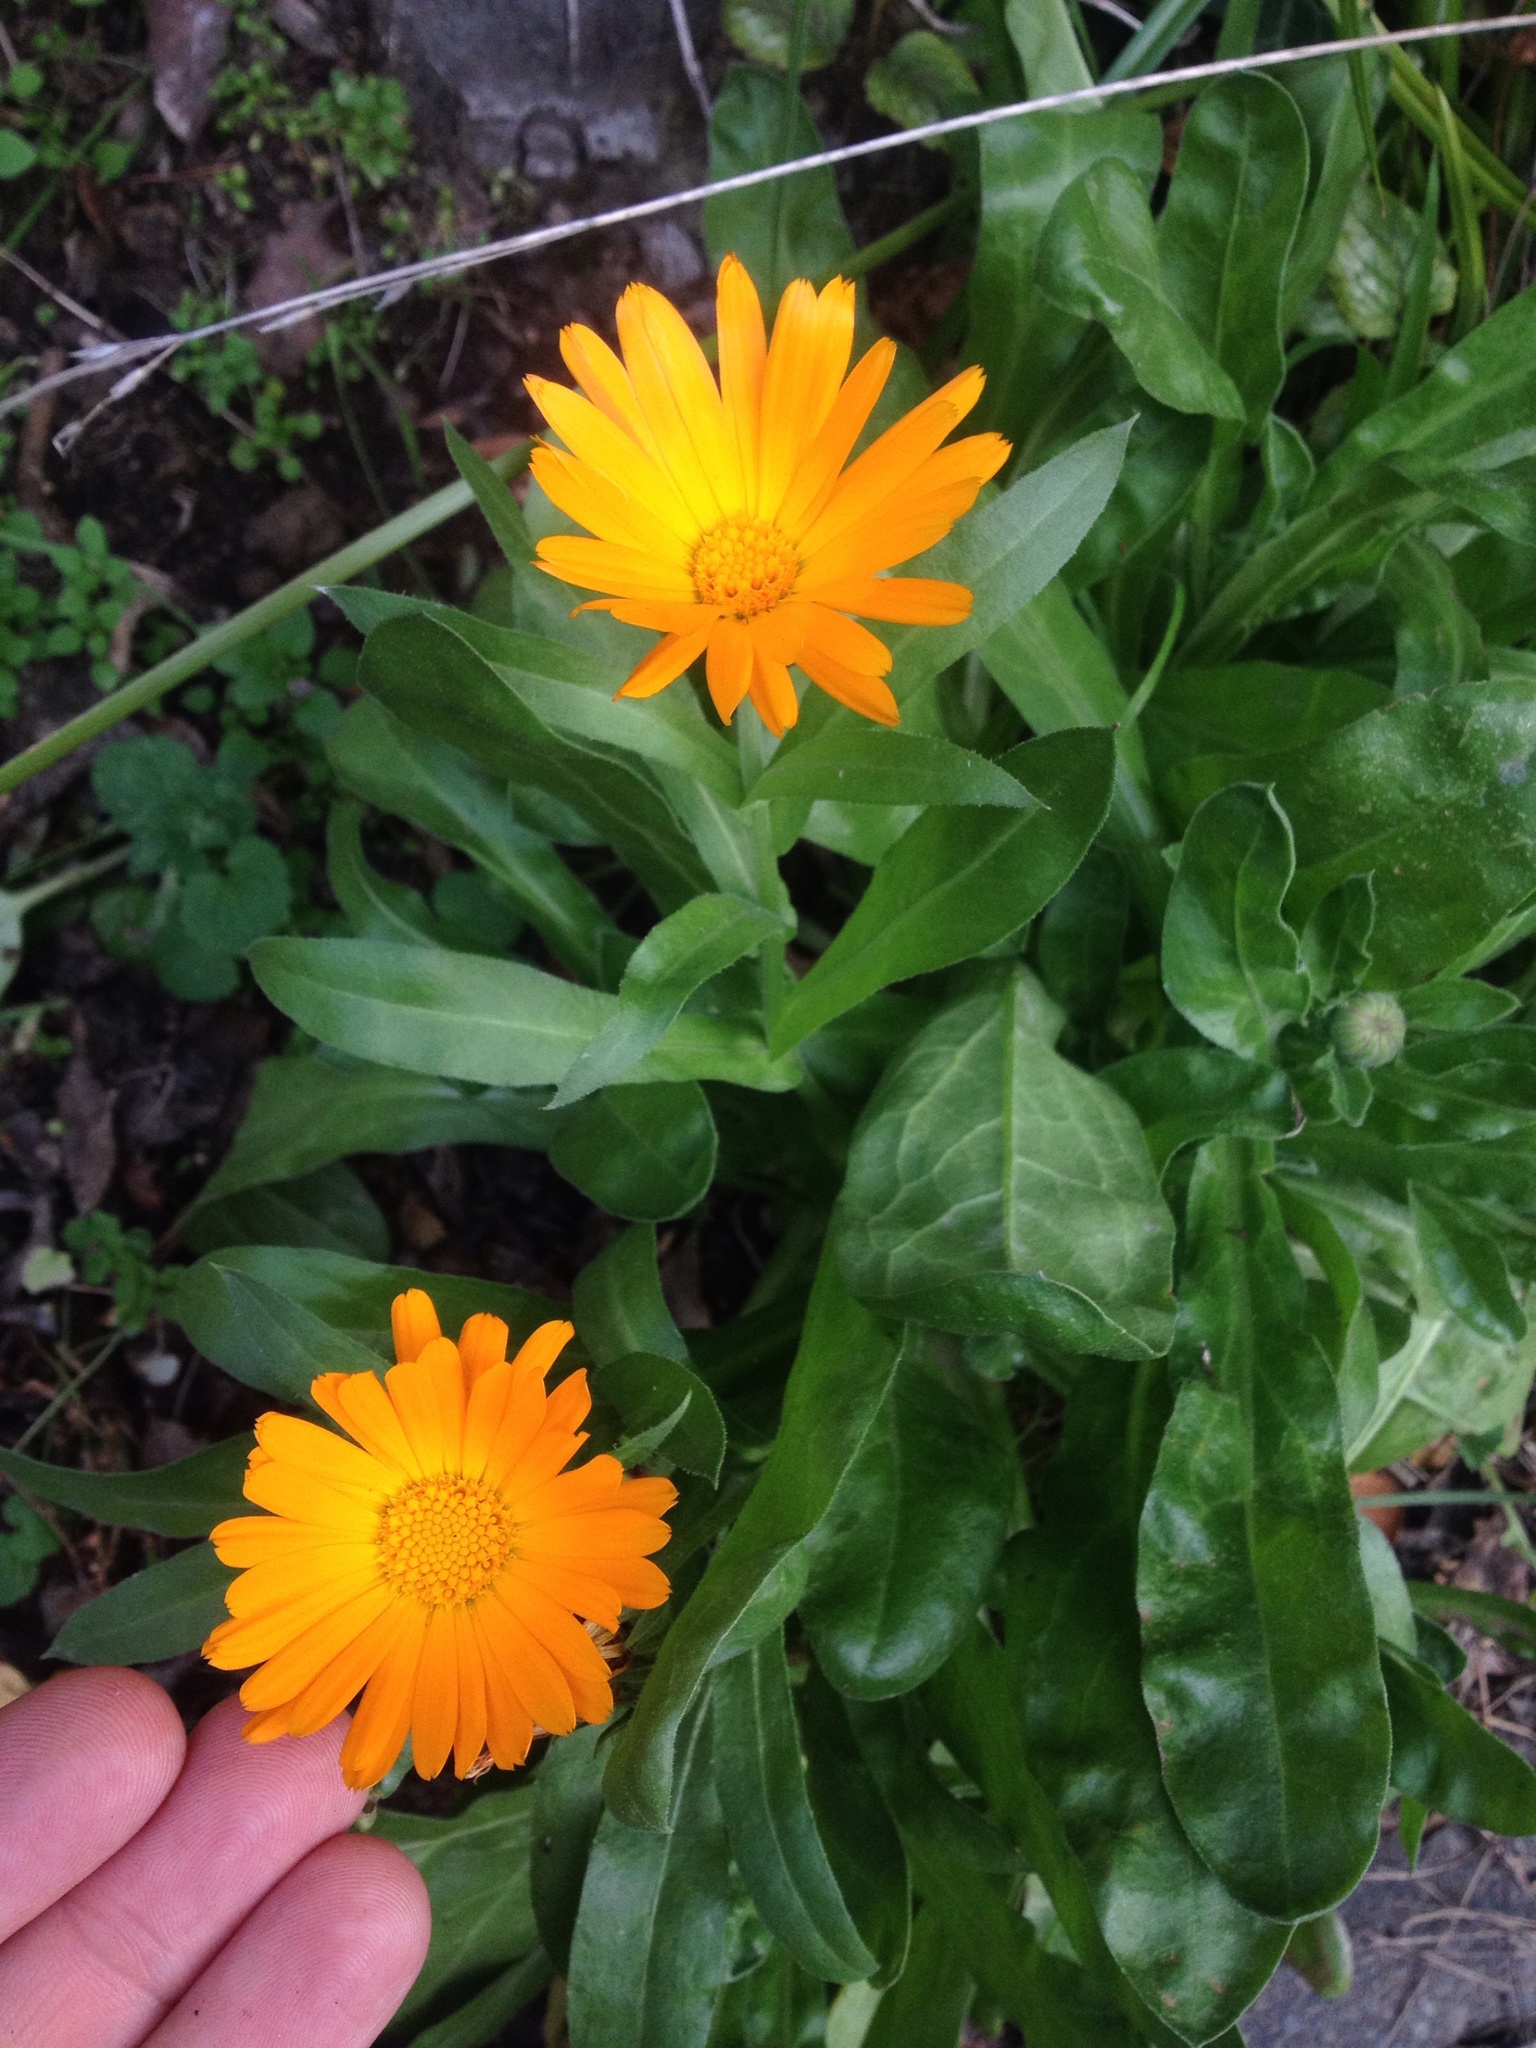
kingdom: Plantae
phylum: Tracheophyta
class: Magnoliopsida
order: Asterales
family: Asteraceae
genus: Calendula
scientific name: Calendula officinalis
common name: Pot marigold
